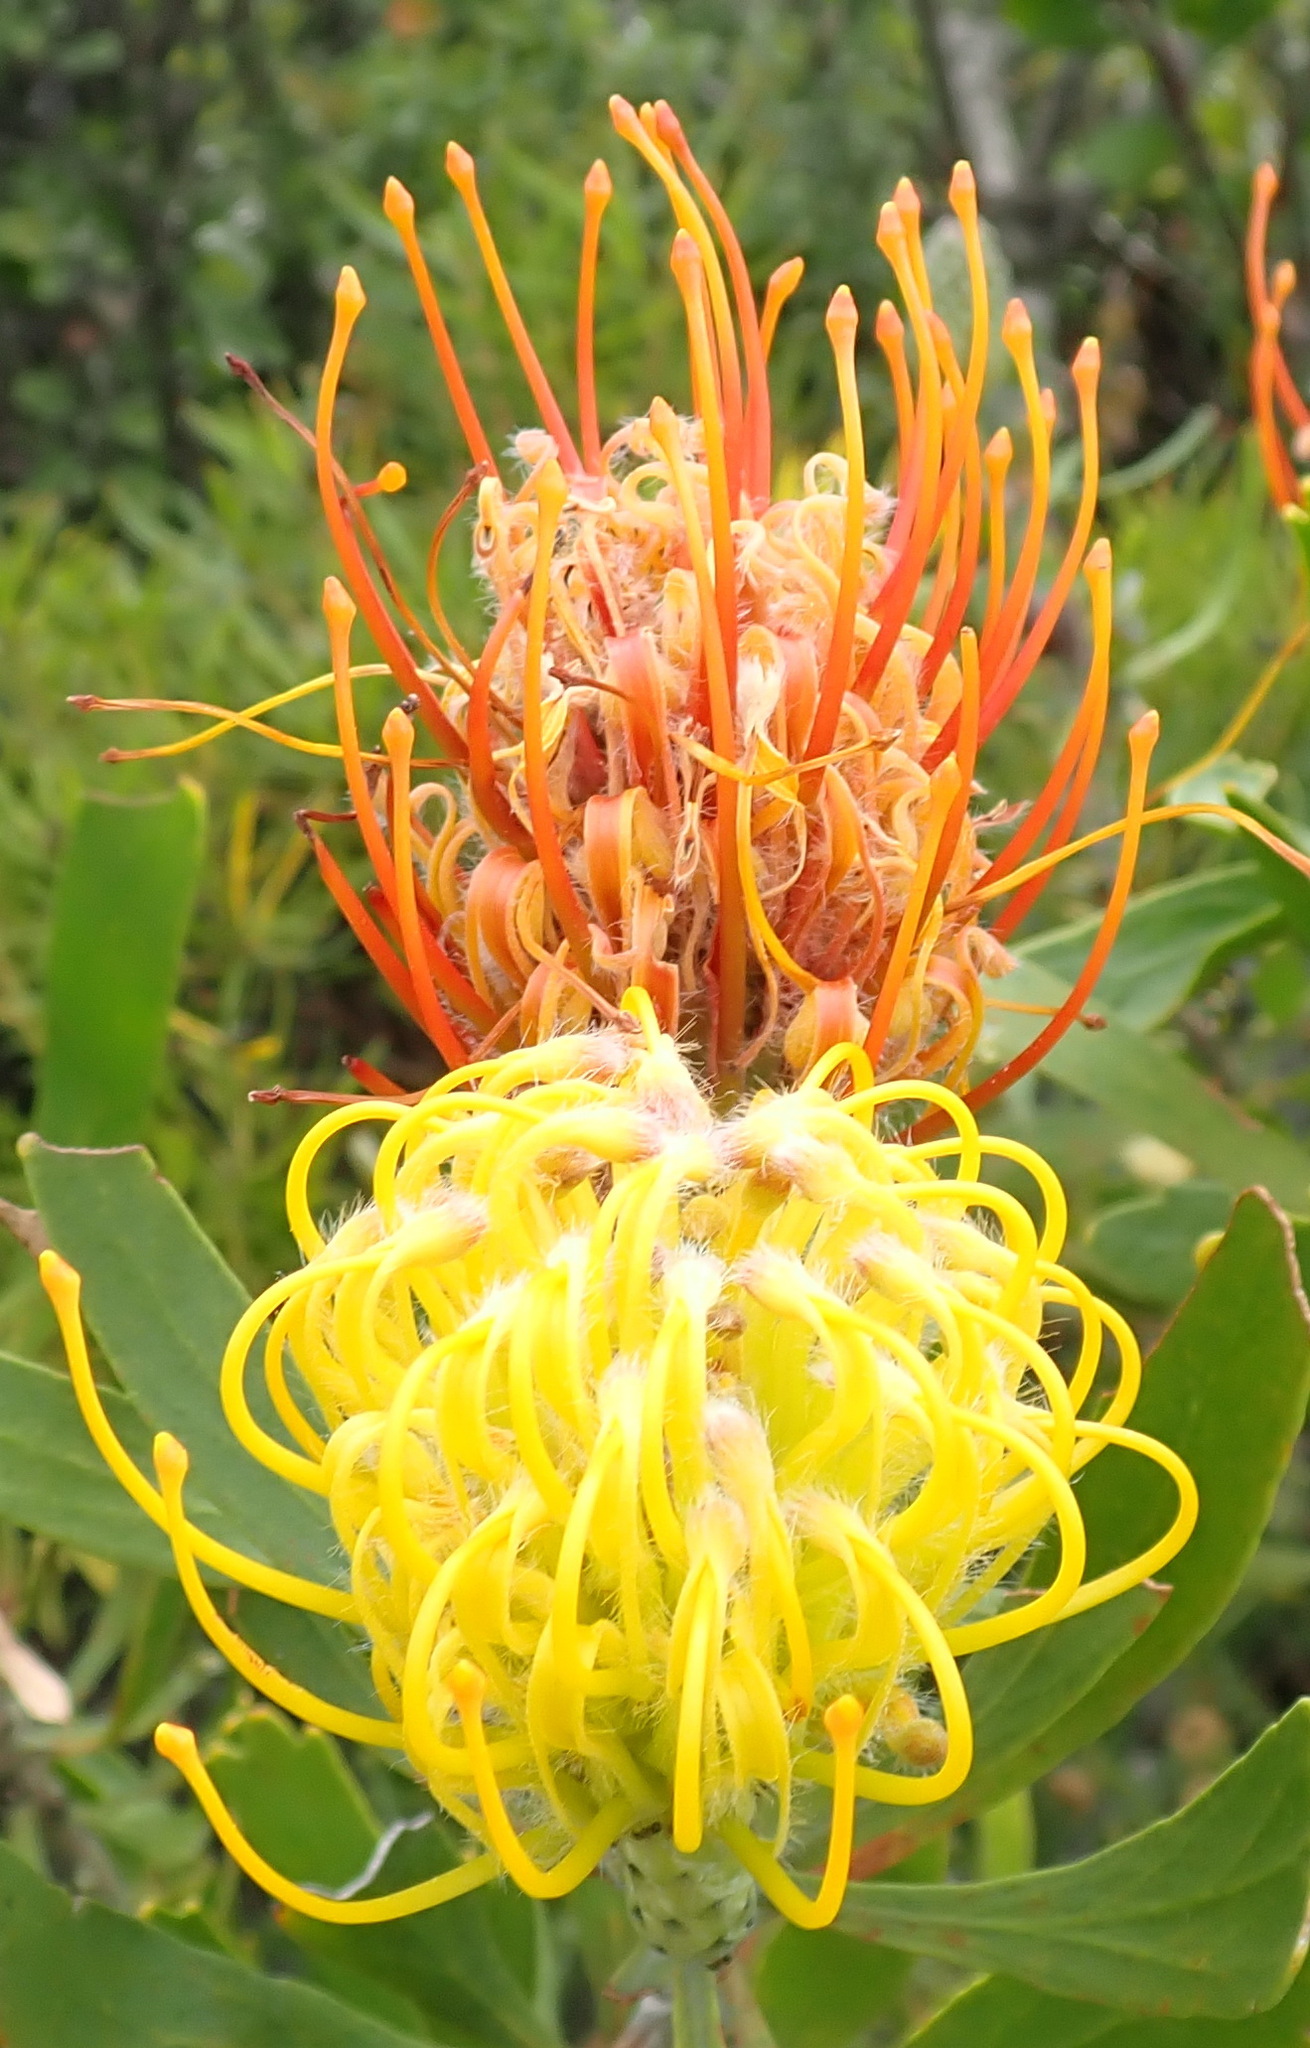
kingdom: Plantae
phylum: Tracheophyta
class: Magnoliopsida
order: Proteales
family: Proteaceae
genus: Leucospermum
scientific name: Leucospermum cuneiforme
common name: Common pincushion
